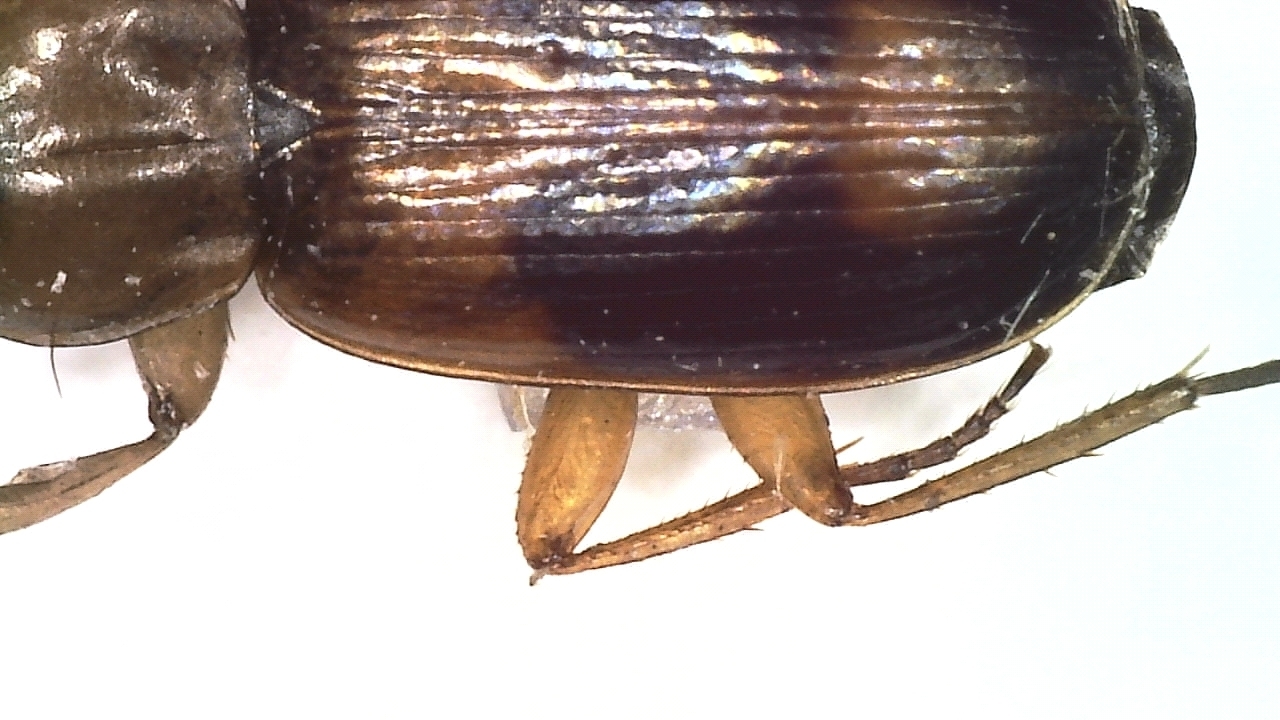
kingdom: Animalia
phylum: Arthropoda
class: Insecta
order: Coleoptera
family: Carabidae
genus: Badister
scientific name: Badister meridionalis
